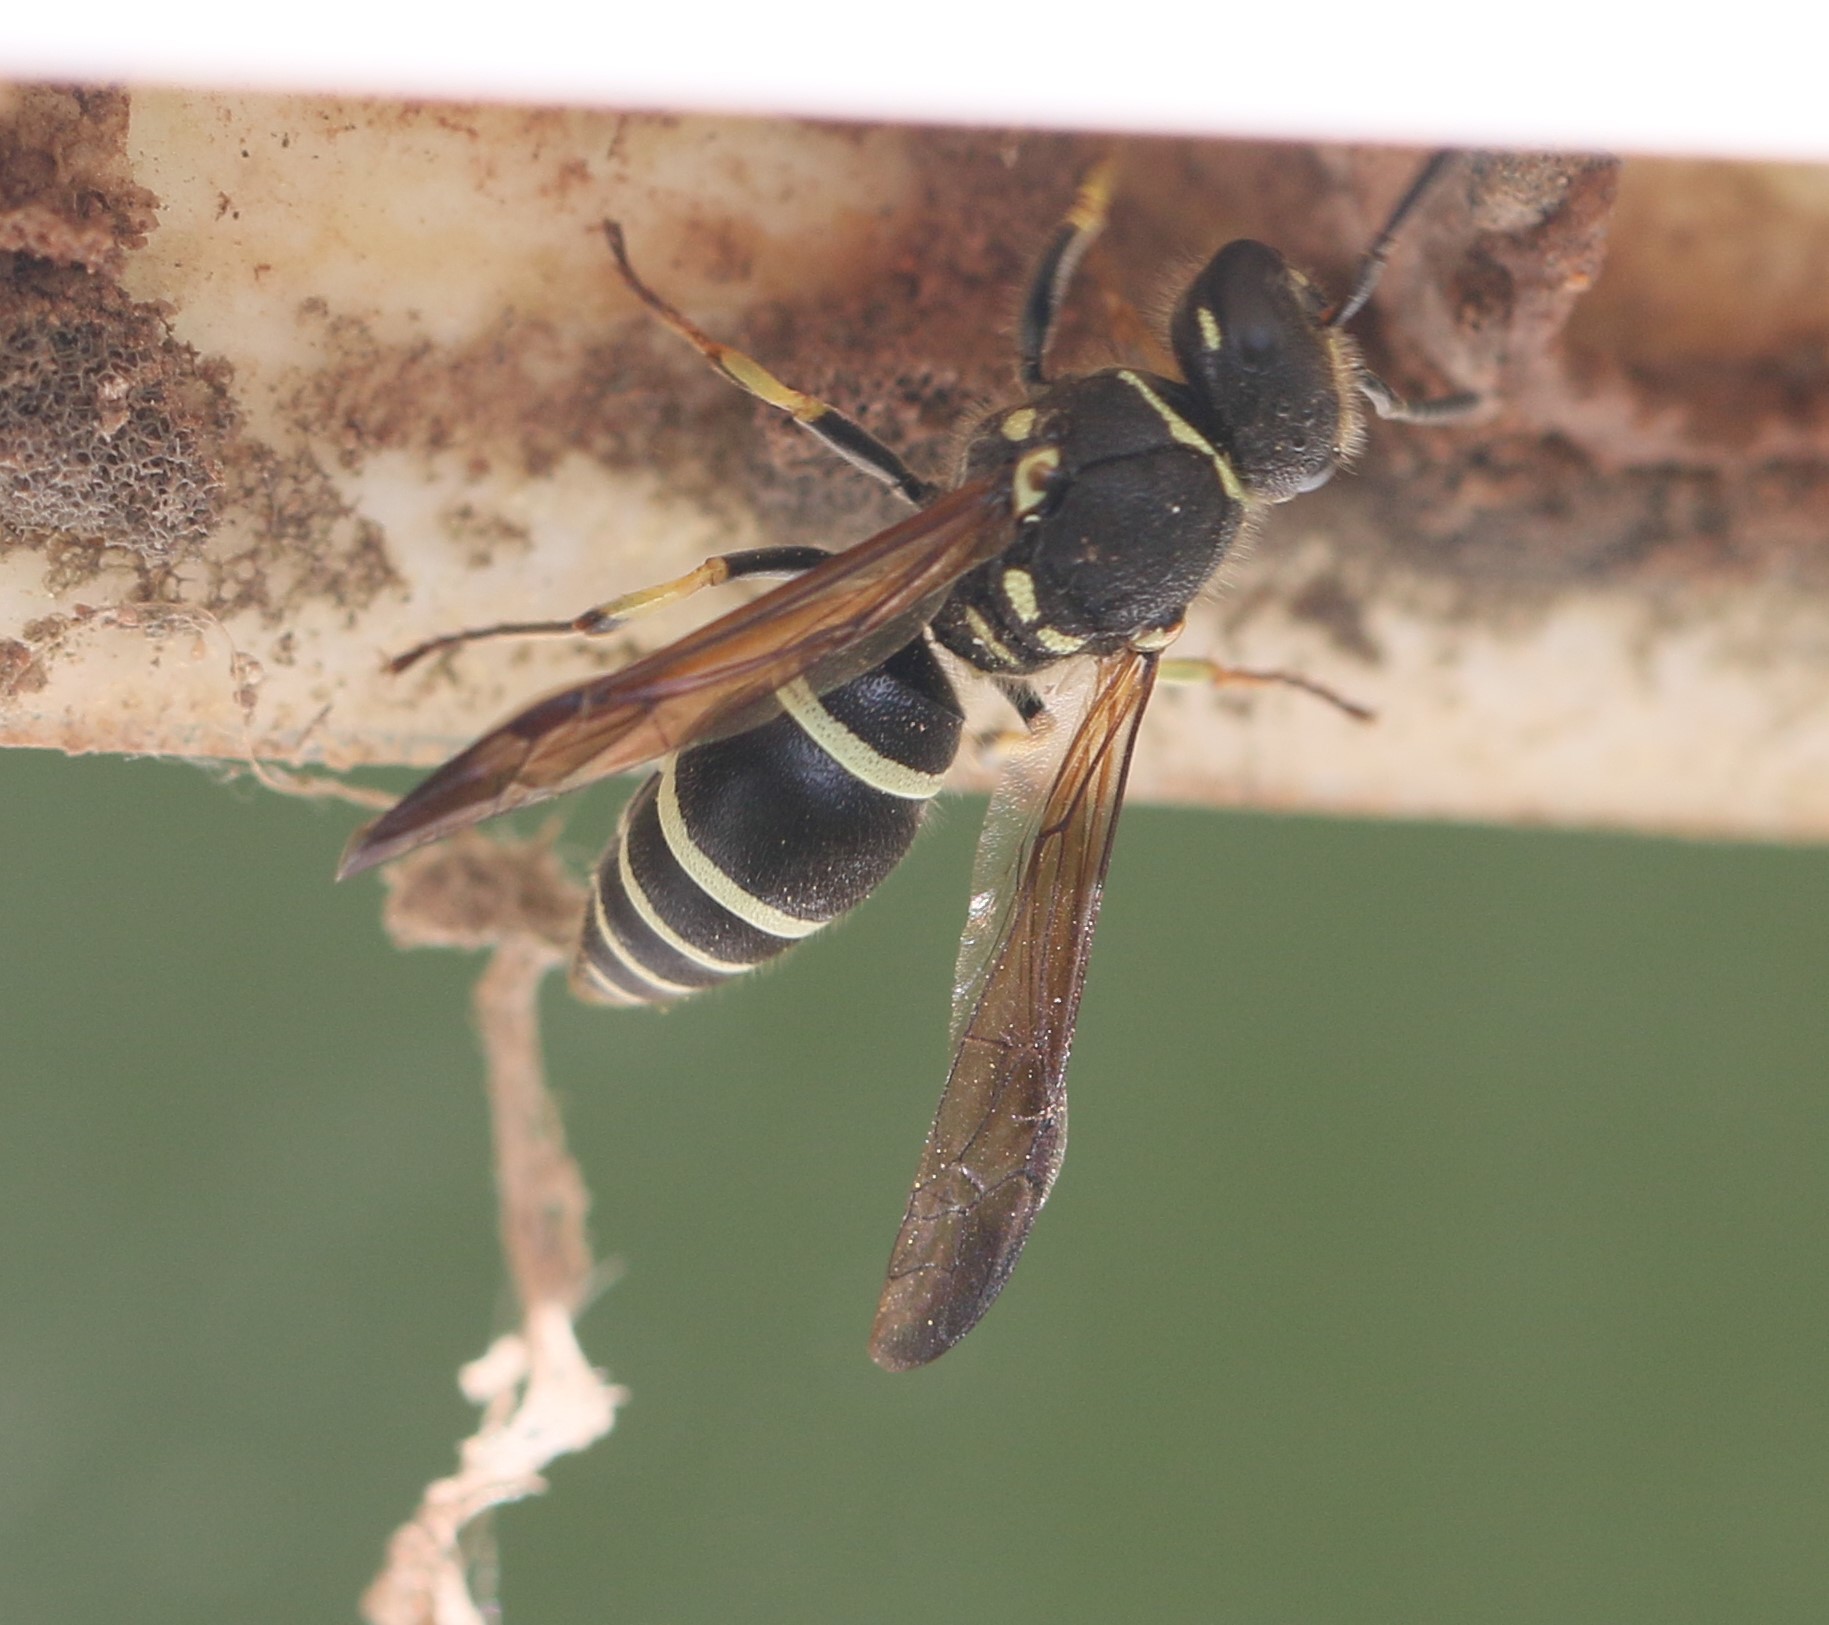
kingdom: Animalia
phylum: Arthropoda
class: Insecta
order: Hymenoptera
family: Vespidae
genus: Ancistrocerus
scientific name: Ancistrocerus catskill
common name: Vespid wasp
